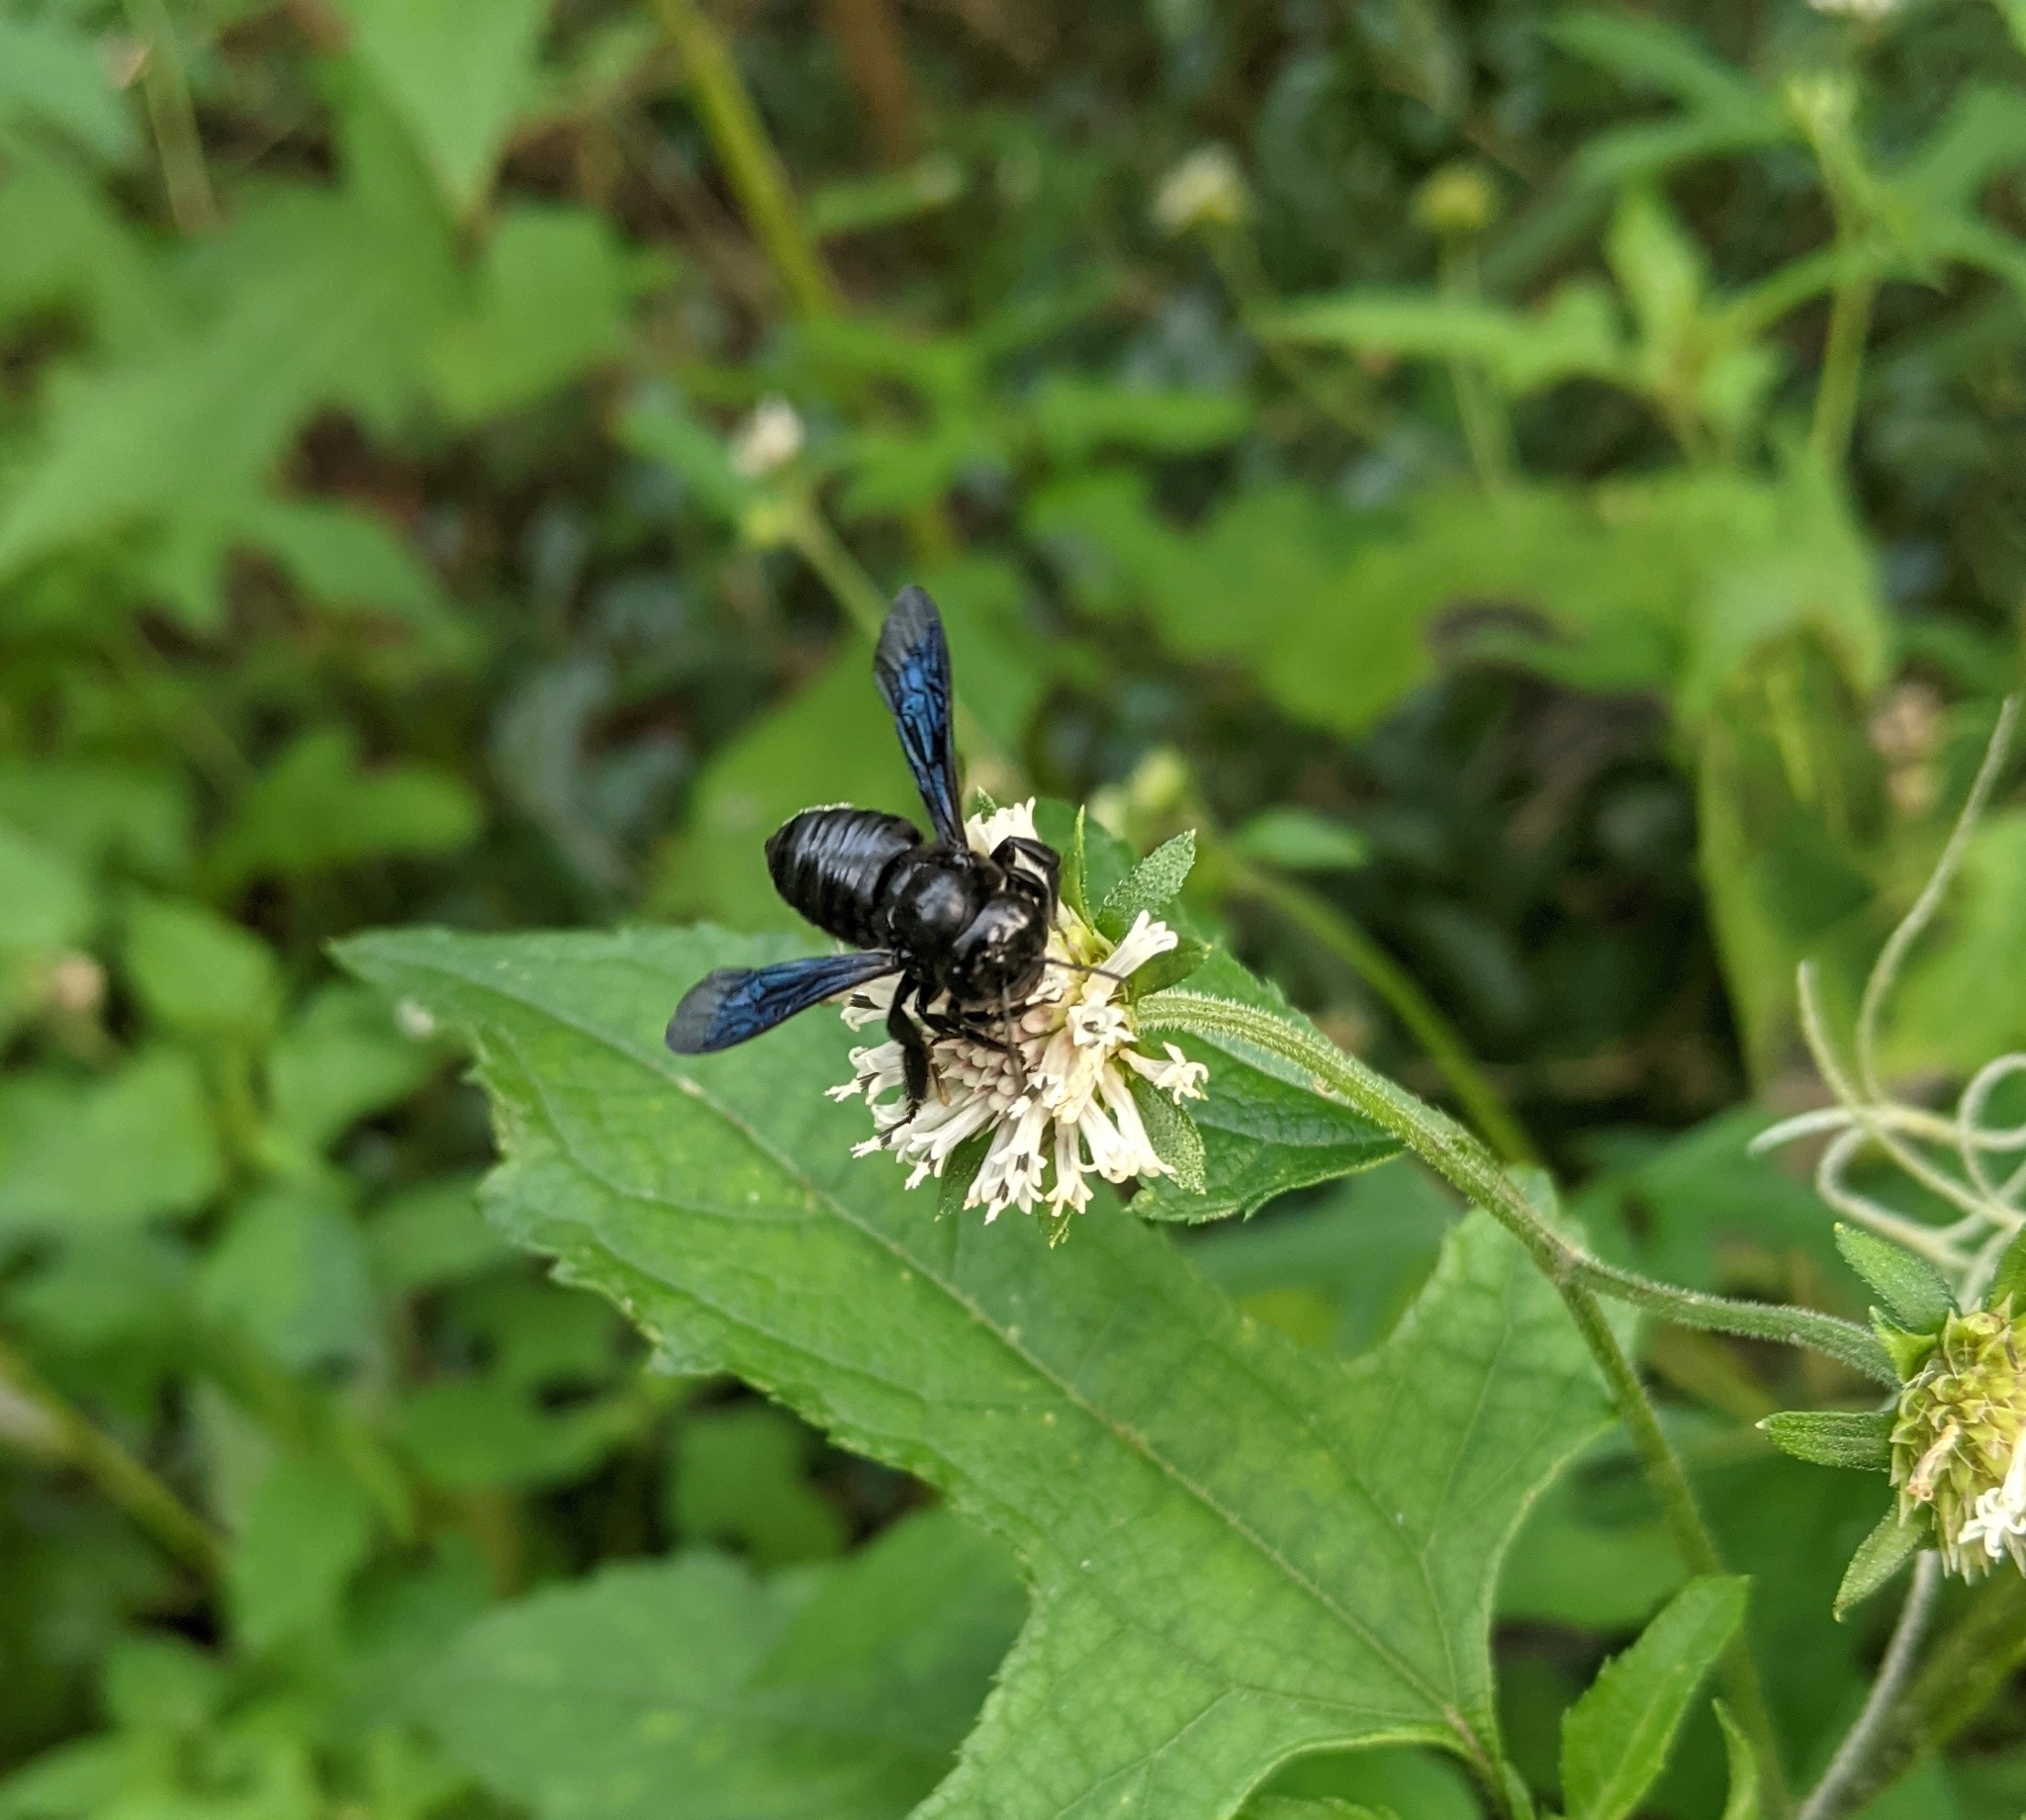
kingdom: Animalia
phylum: Arthropoda
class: Insecta
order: Hymenoptera
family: Megachilidae
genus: Megachile
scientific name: Megachile xylocopoides
